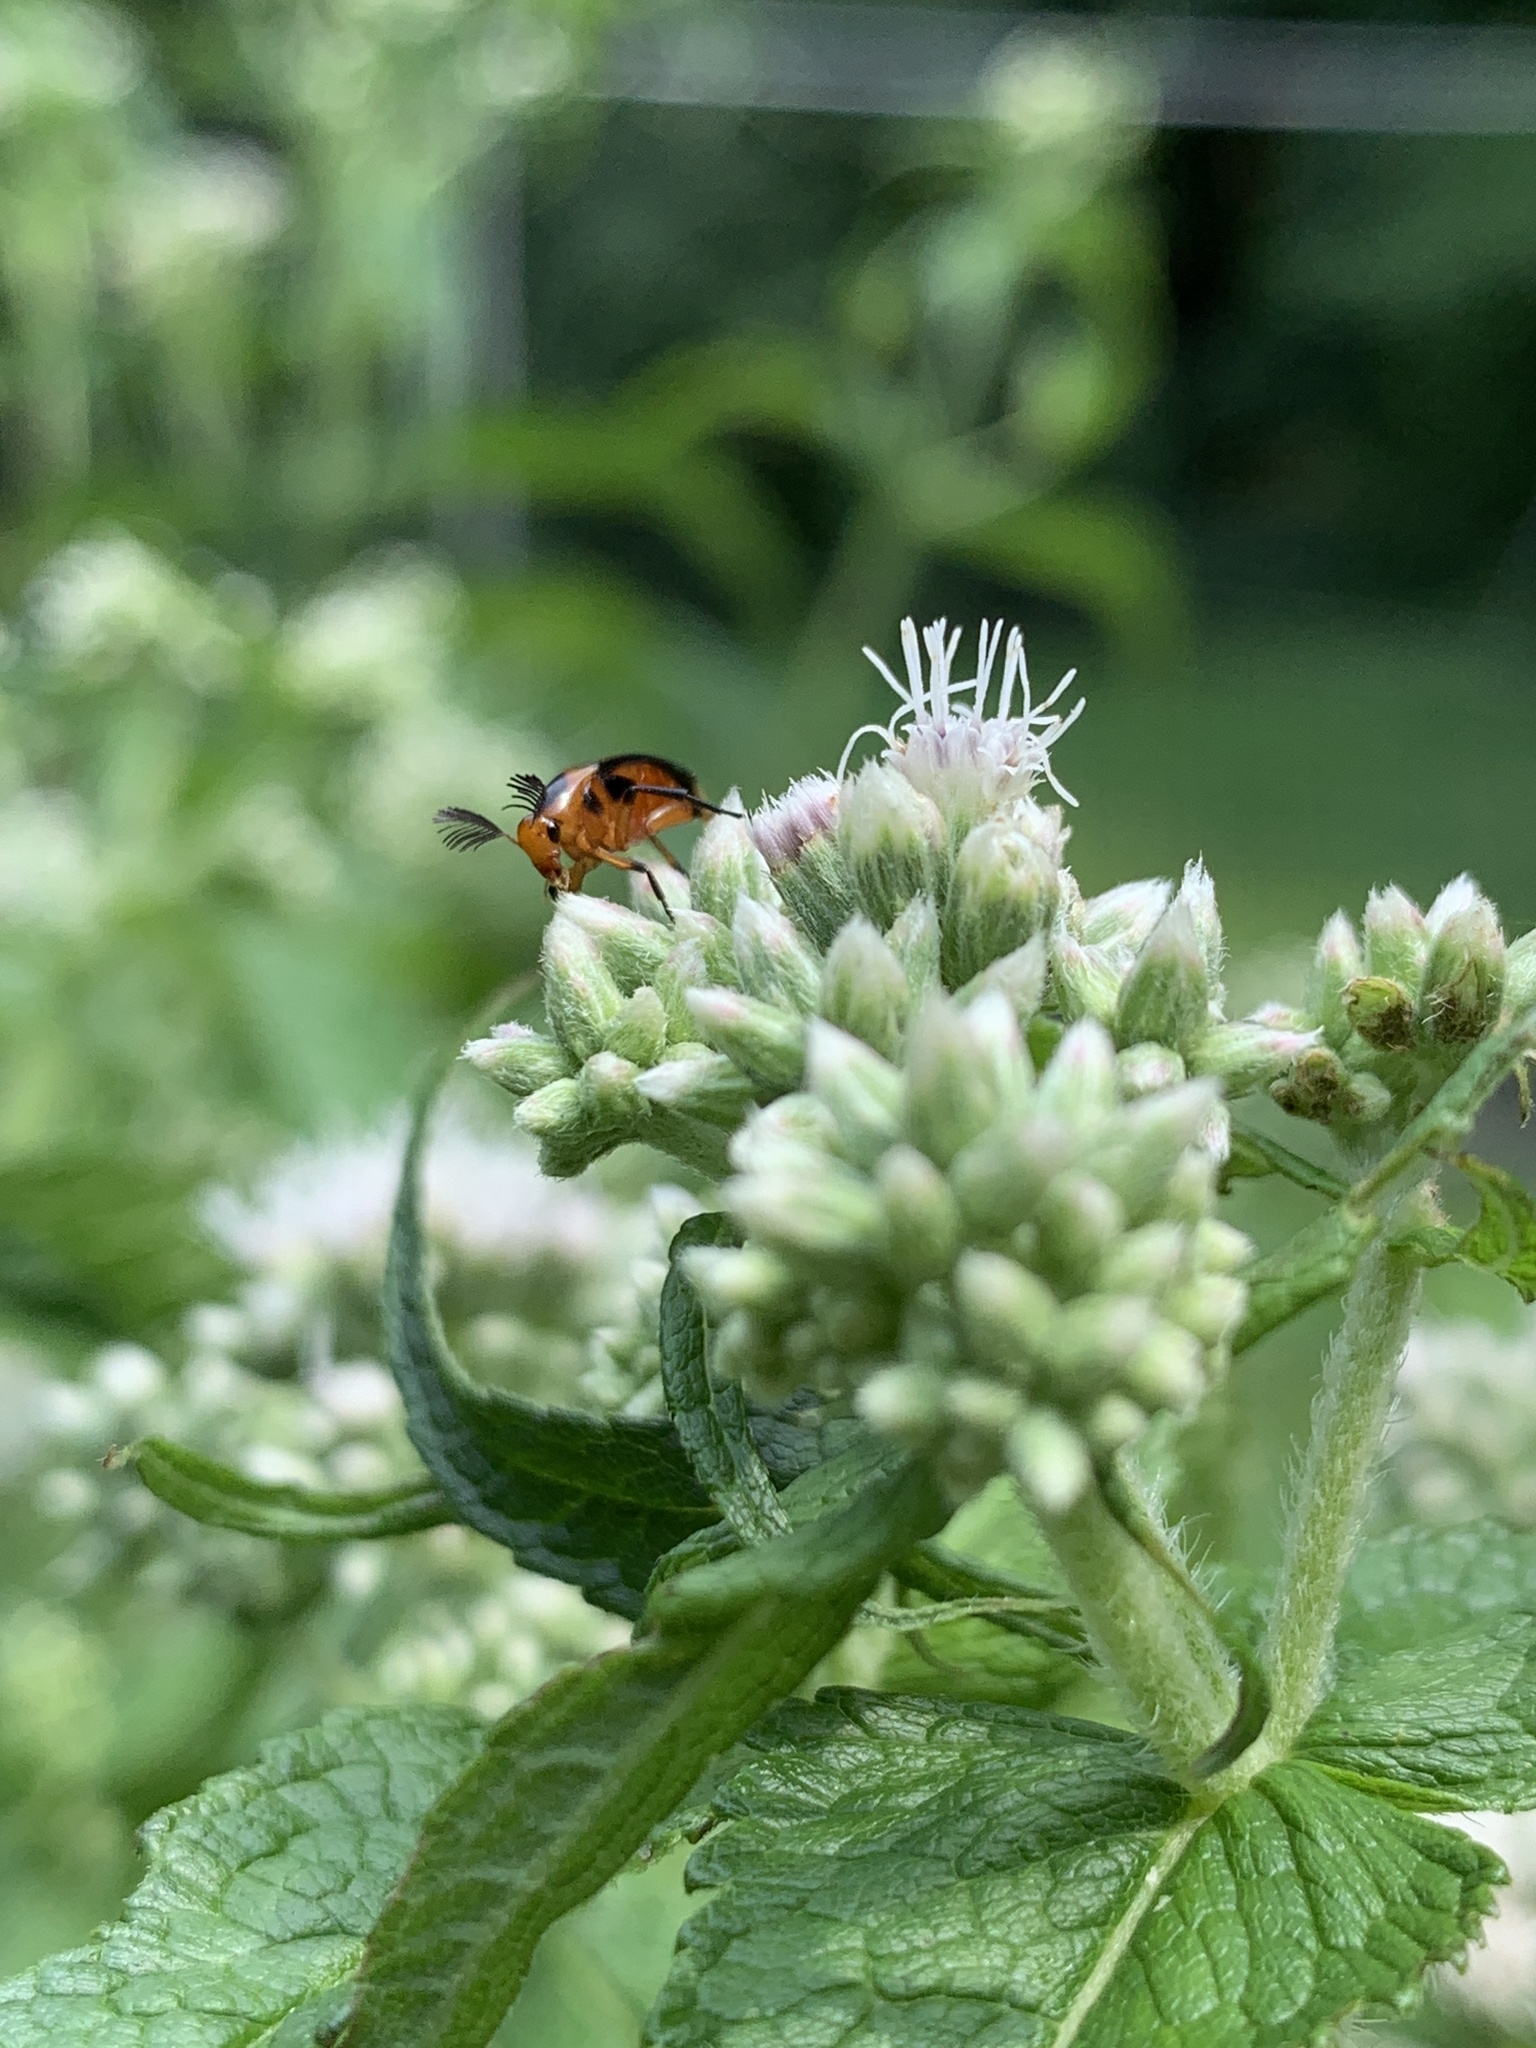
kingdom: Animalia
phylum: Arthropoda
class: Insecta
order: Coleoptera
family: Ripiphoridae
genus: Macrosiagon
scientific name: Macrosiagon limbatum
